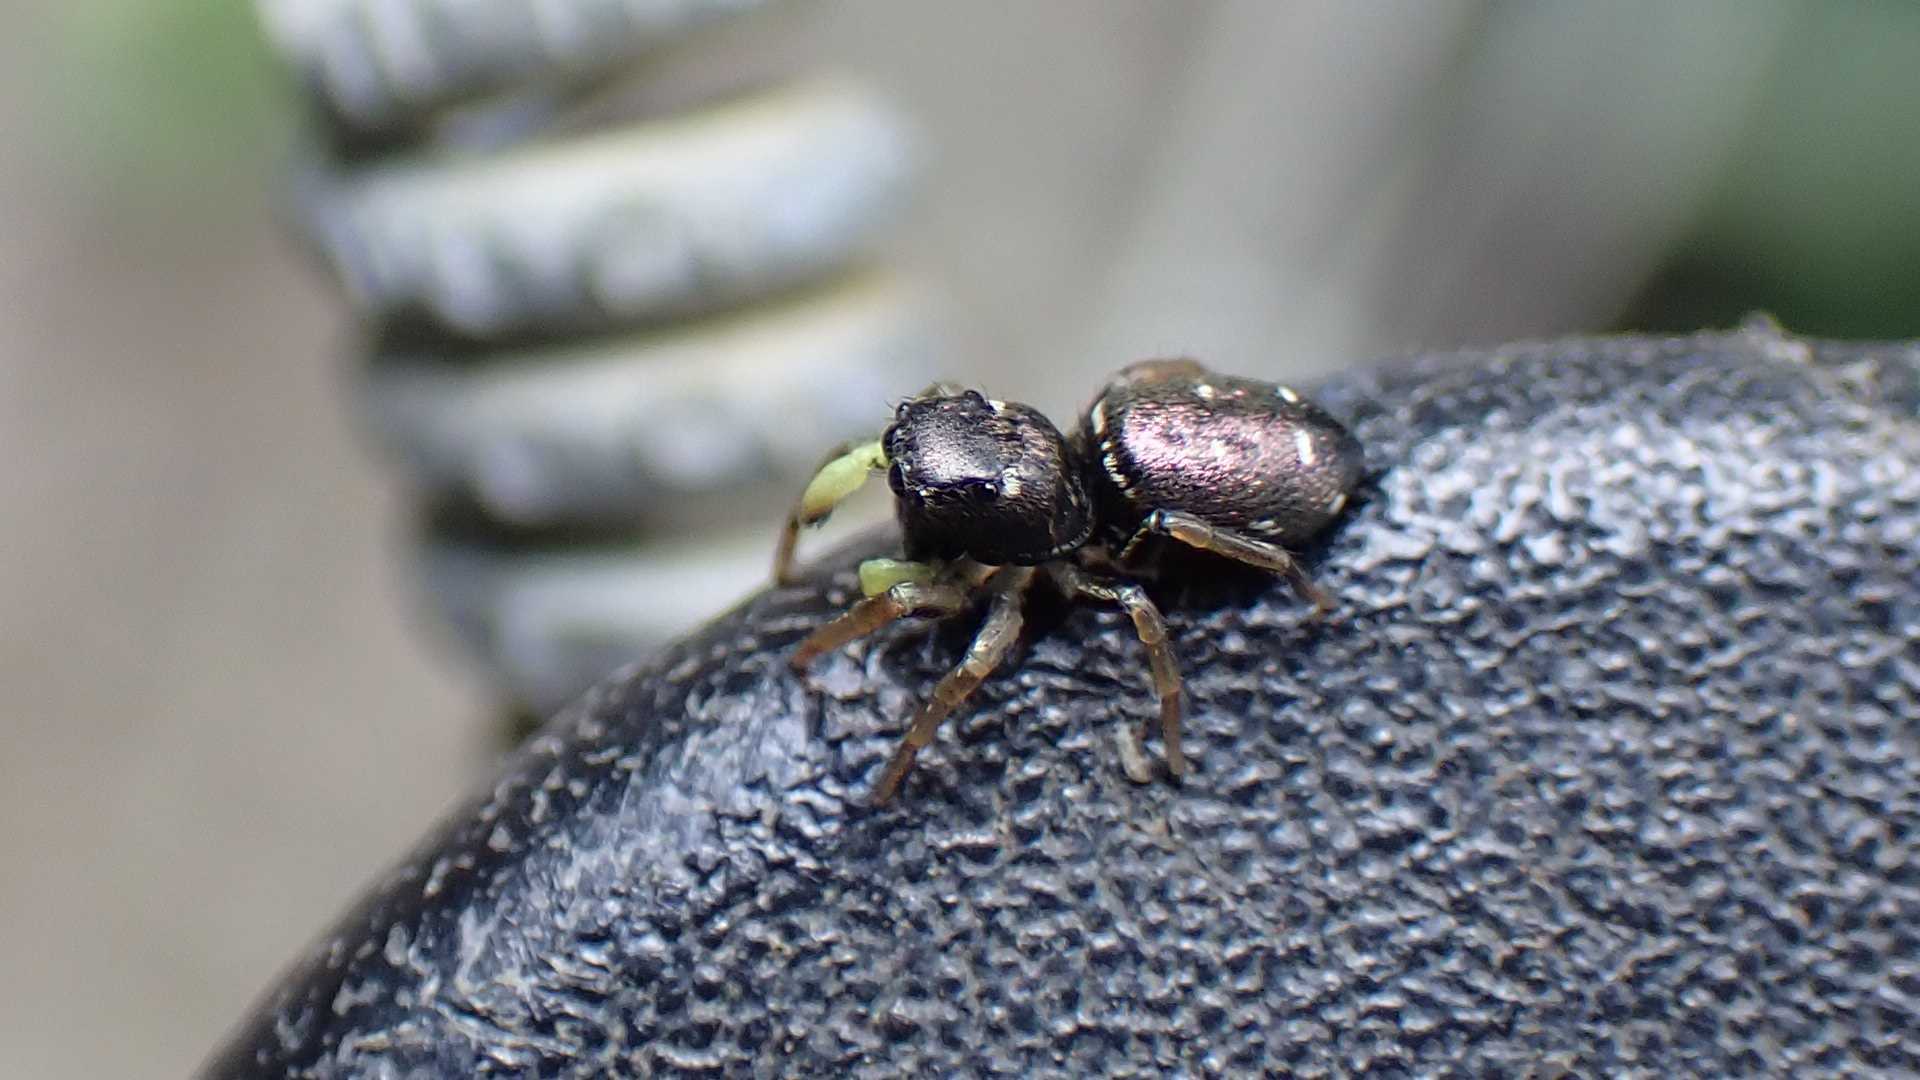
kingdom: Animalia
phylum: Arthropoda
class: Arachnida
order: Araneae
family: Salticidae
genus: Heliophanus
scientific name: Heliophanus cupreus
